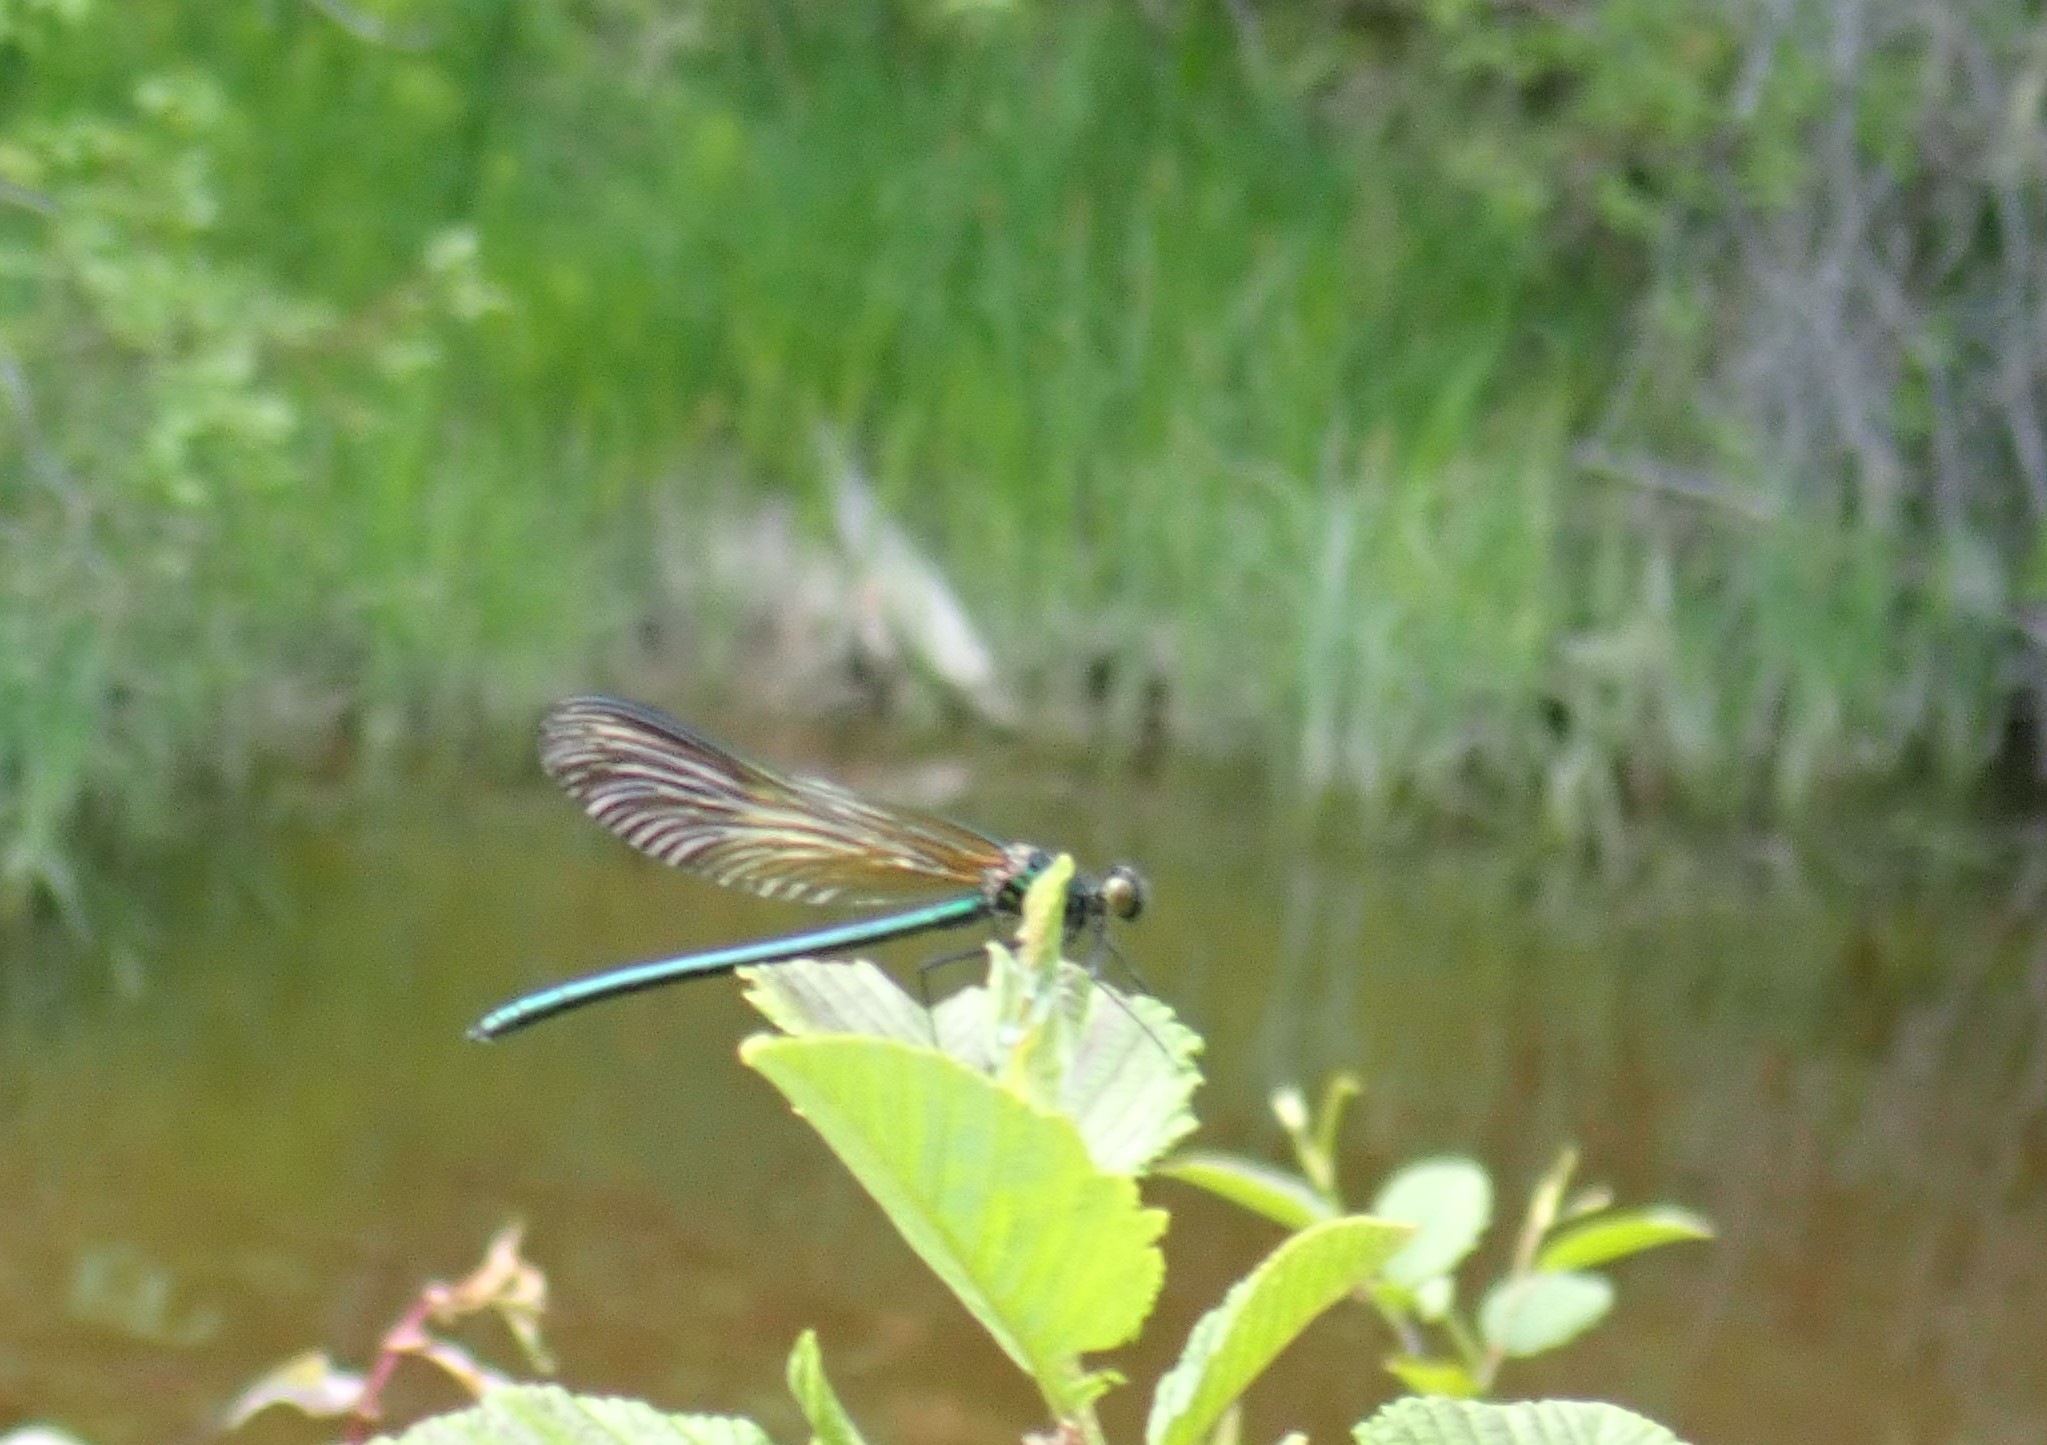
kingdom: Animalia
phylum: Arthropoda
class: Insecta
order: Odonata
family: Calopterygidae
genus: Calopteryx
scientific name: Calopteryx aequabilis
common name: River jewelwing
